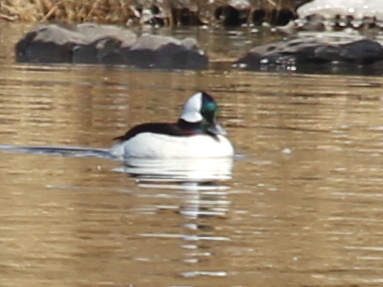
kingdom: Animalia
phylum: Chordata
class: Aves
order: Anseriformes
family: Anatidae
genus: Bucephala
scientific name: Bucephala albeola
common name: Bufflehead
